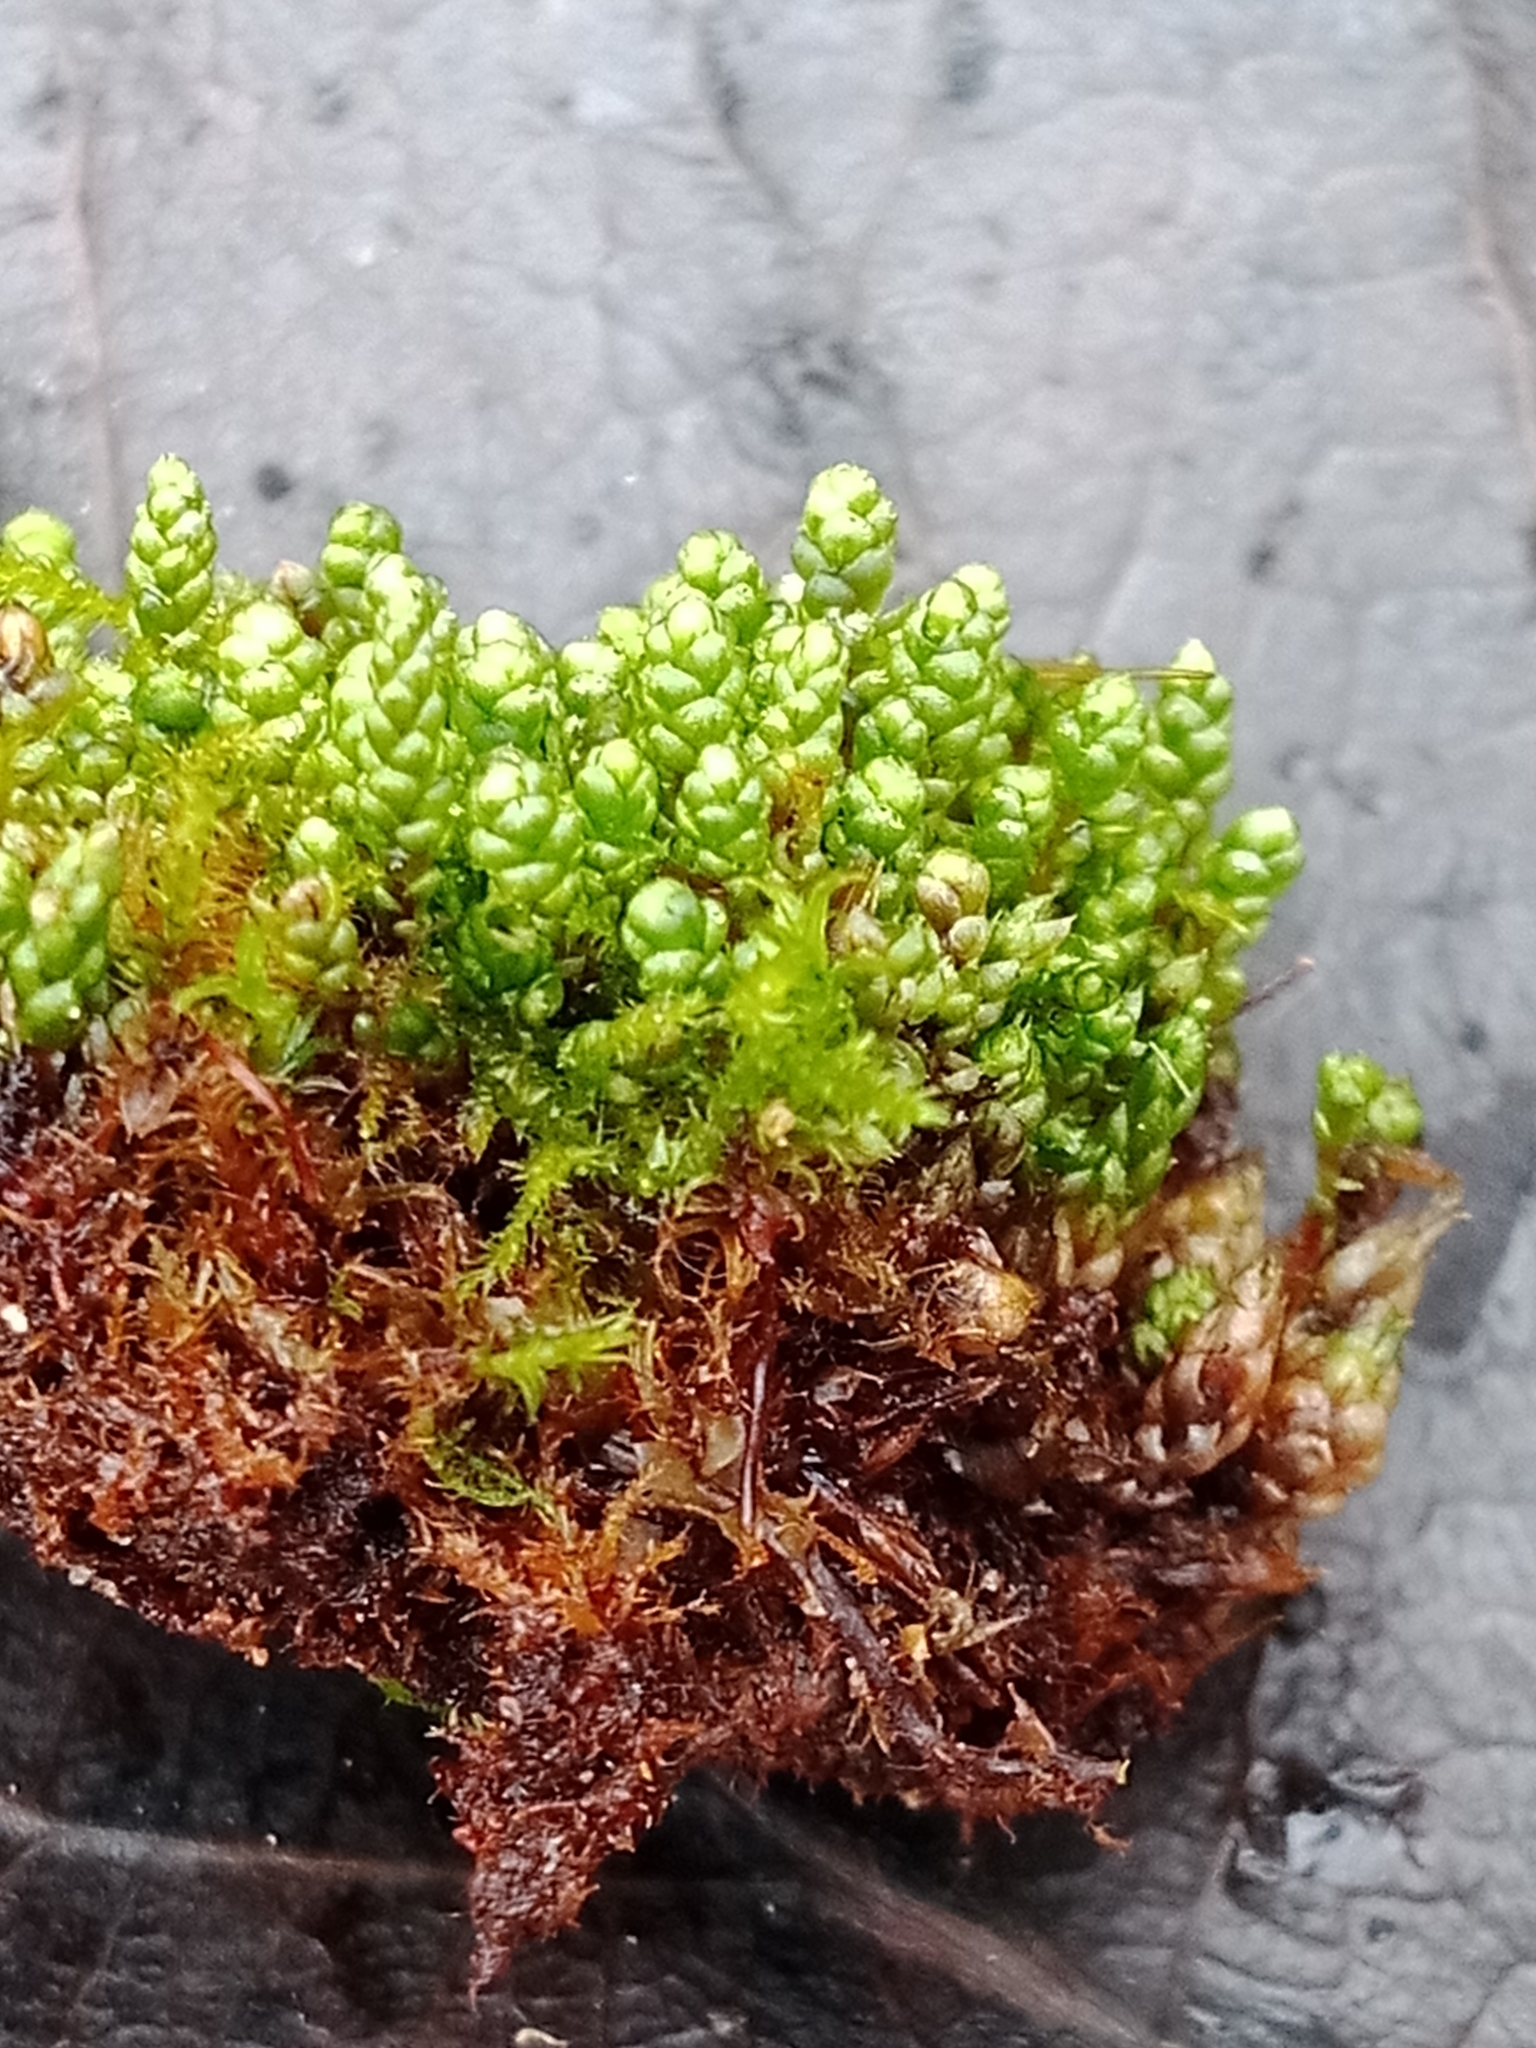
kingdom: Plantae
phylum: Bryophyta
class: Bryopsida
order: Bryales
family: Bryaceae
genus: Bryum
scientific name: Bryum argenteum
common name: Silver-moss
